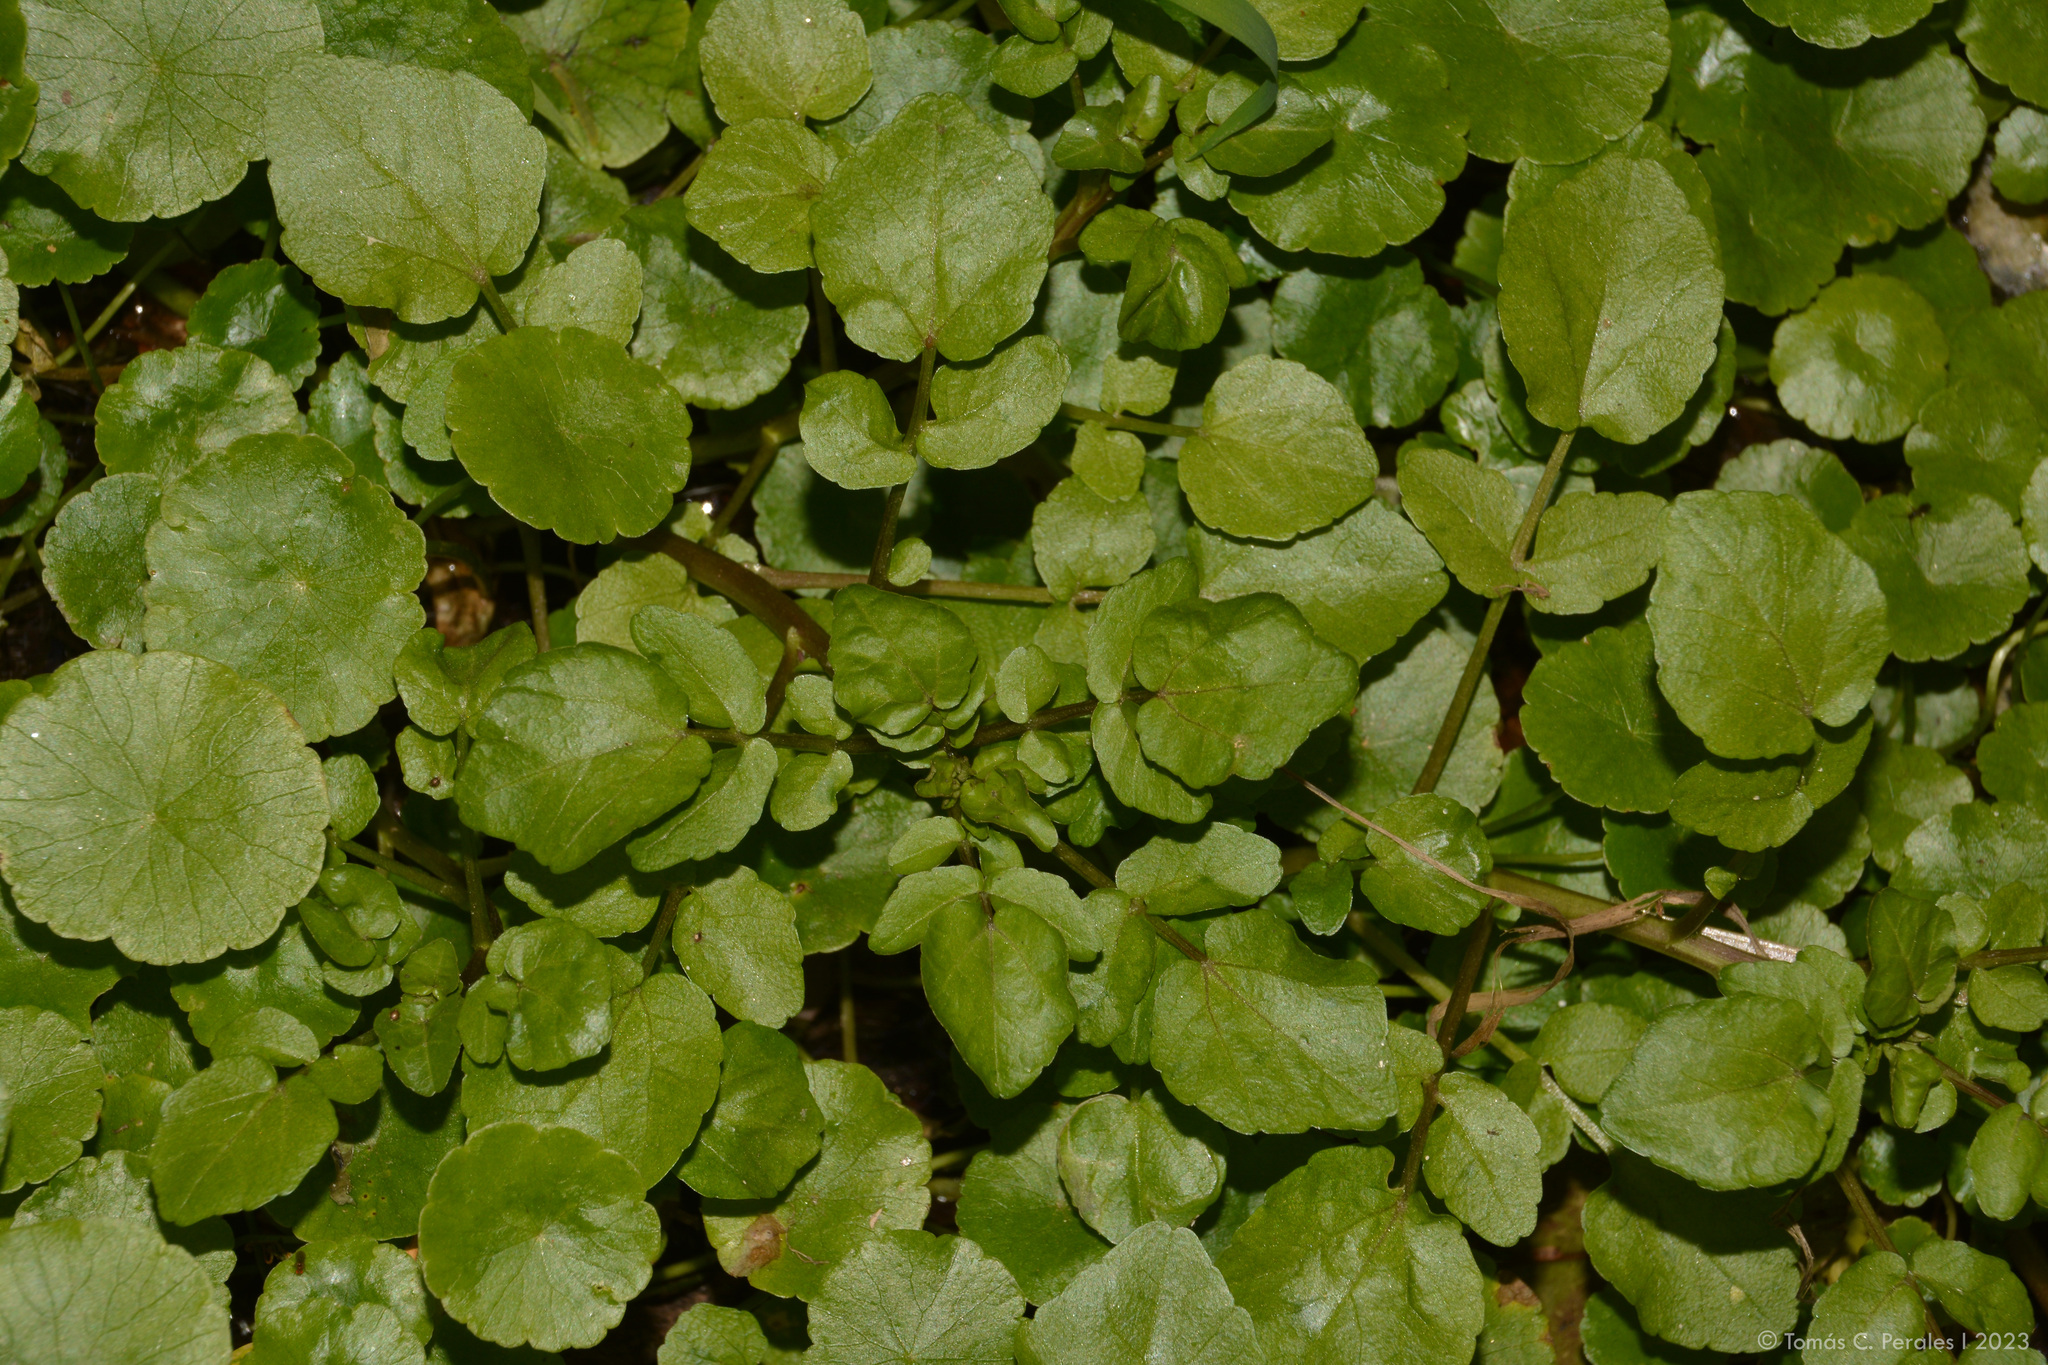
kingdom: Plantae
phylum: Tracheophyta
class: Magnoliopsida
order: Brassicales
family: Brassicaceae
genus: Nasturtium
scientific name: Nasturtium officinale
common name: Watercress
